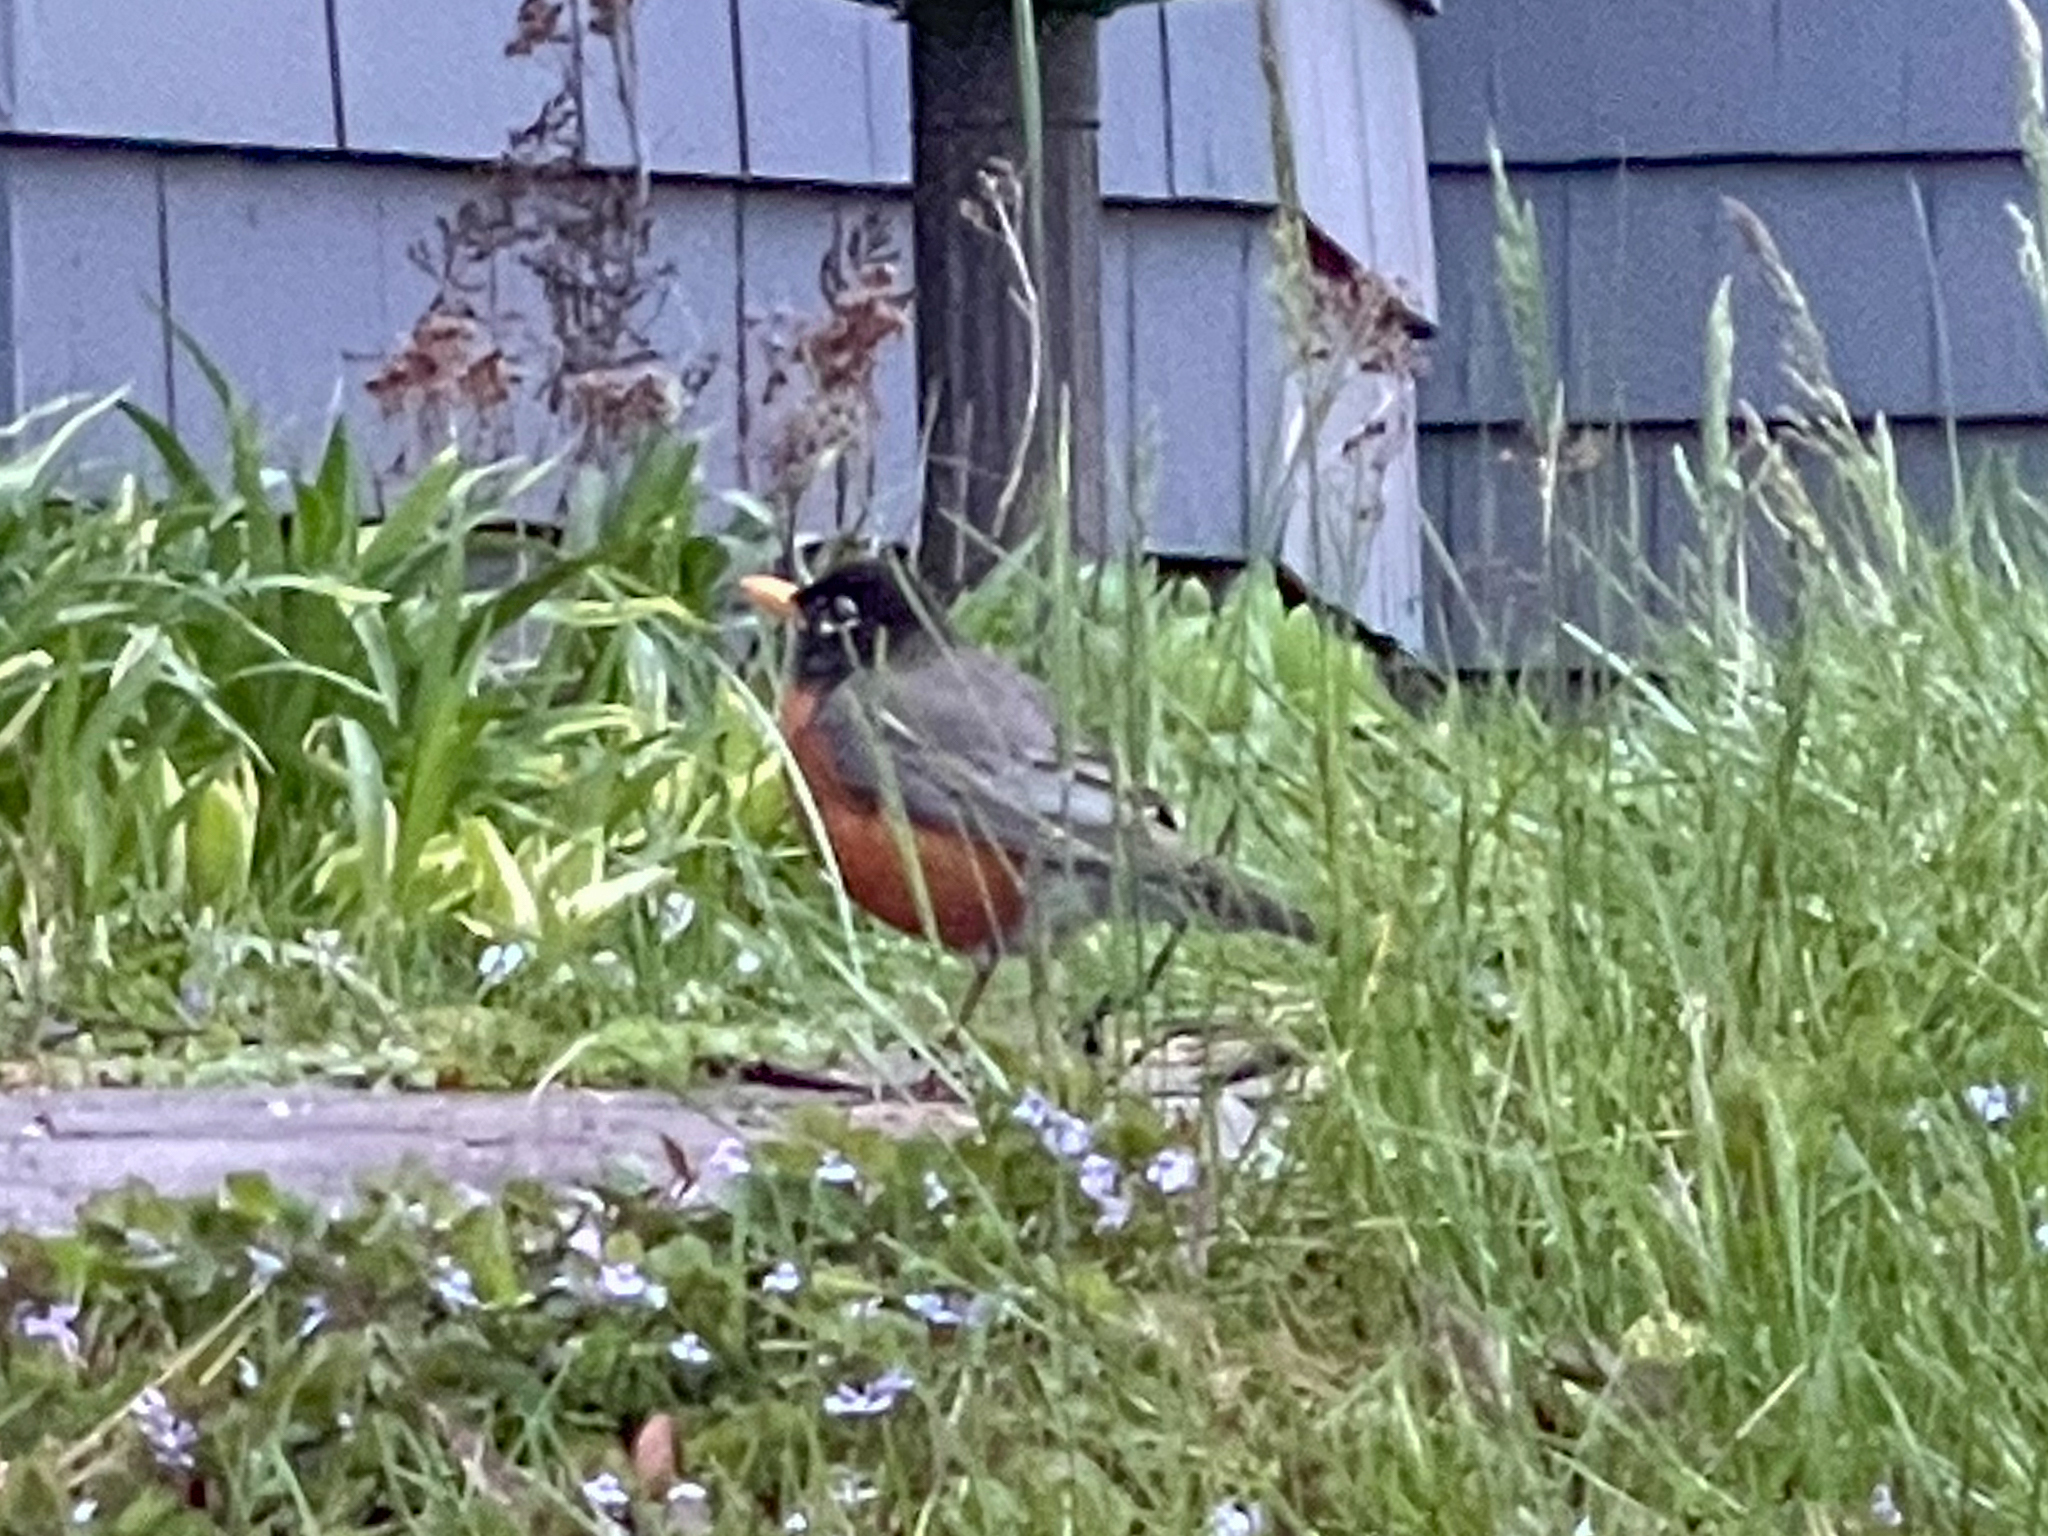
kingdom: Animalia
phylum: Chordata
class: Aves
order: Passeriformes
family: Turdidae
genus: Turdus
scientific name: Turdus migratorius
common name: American robin
